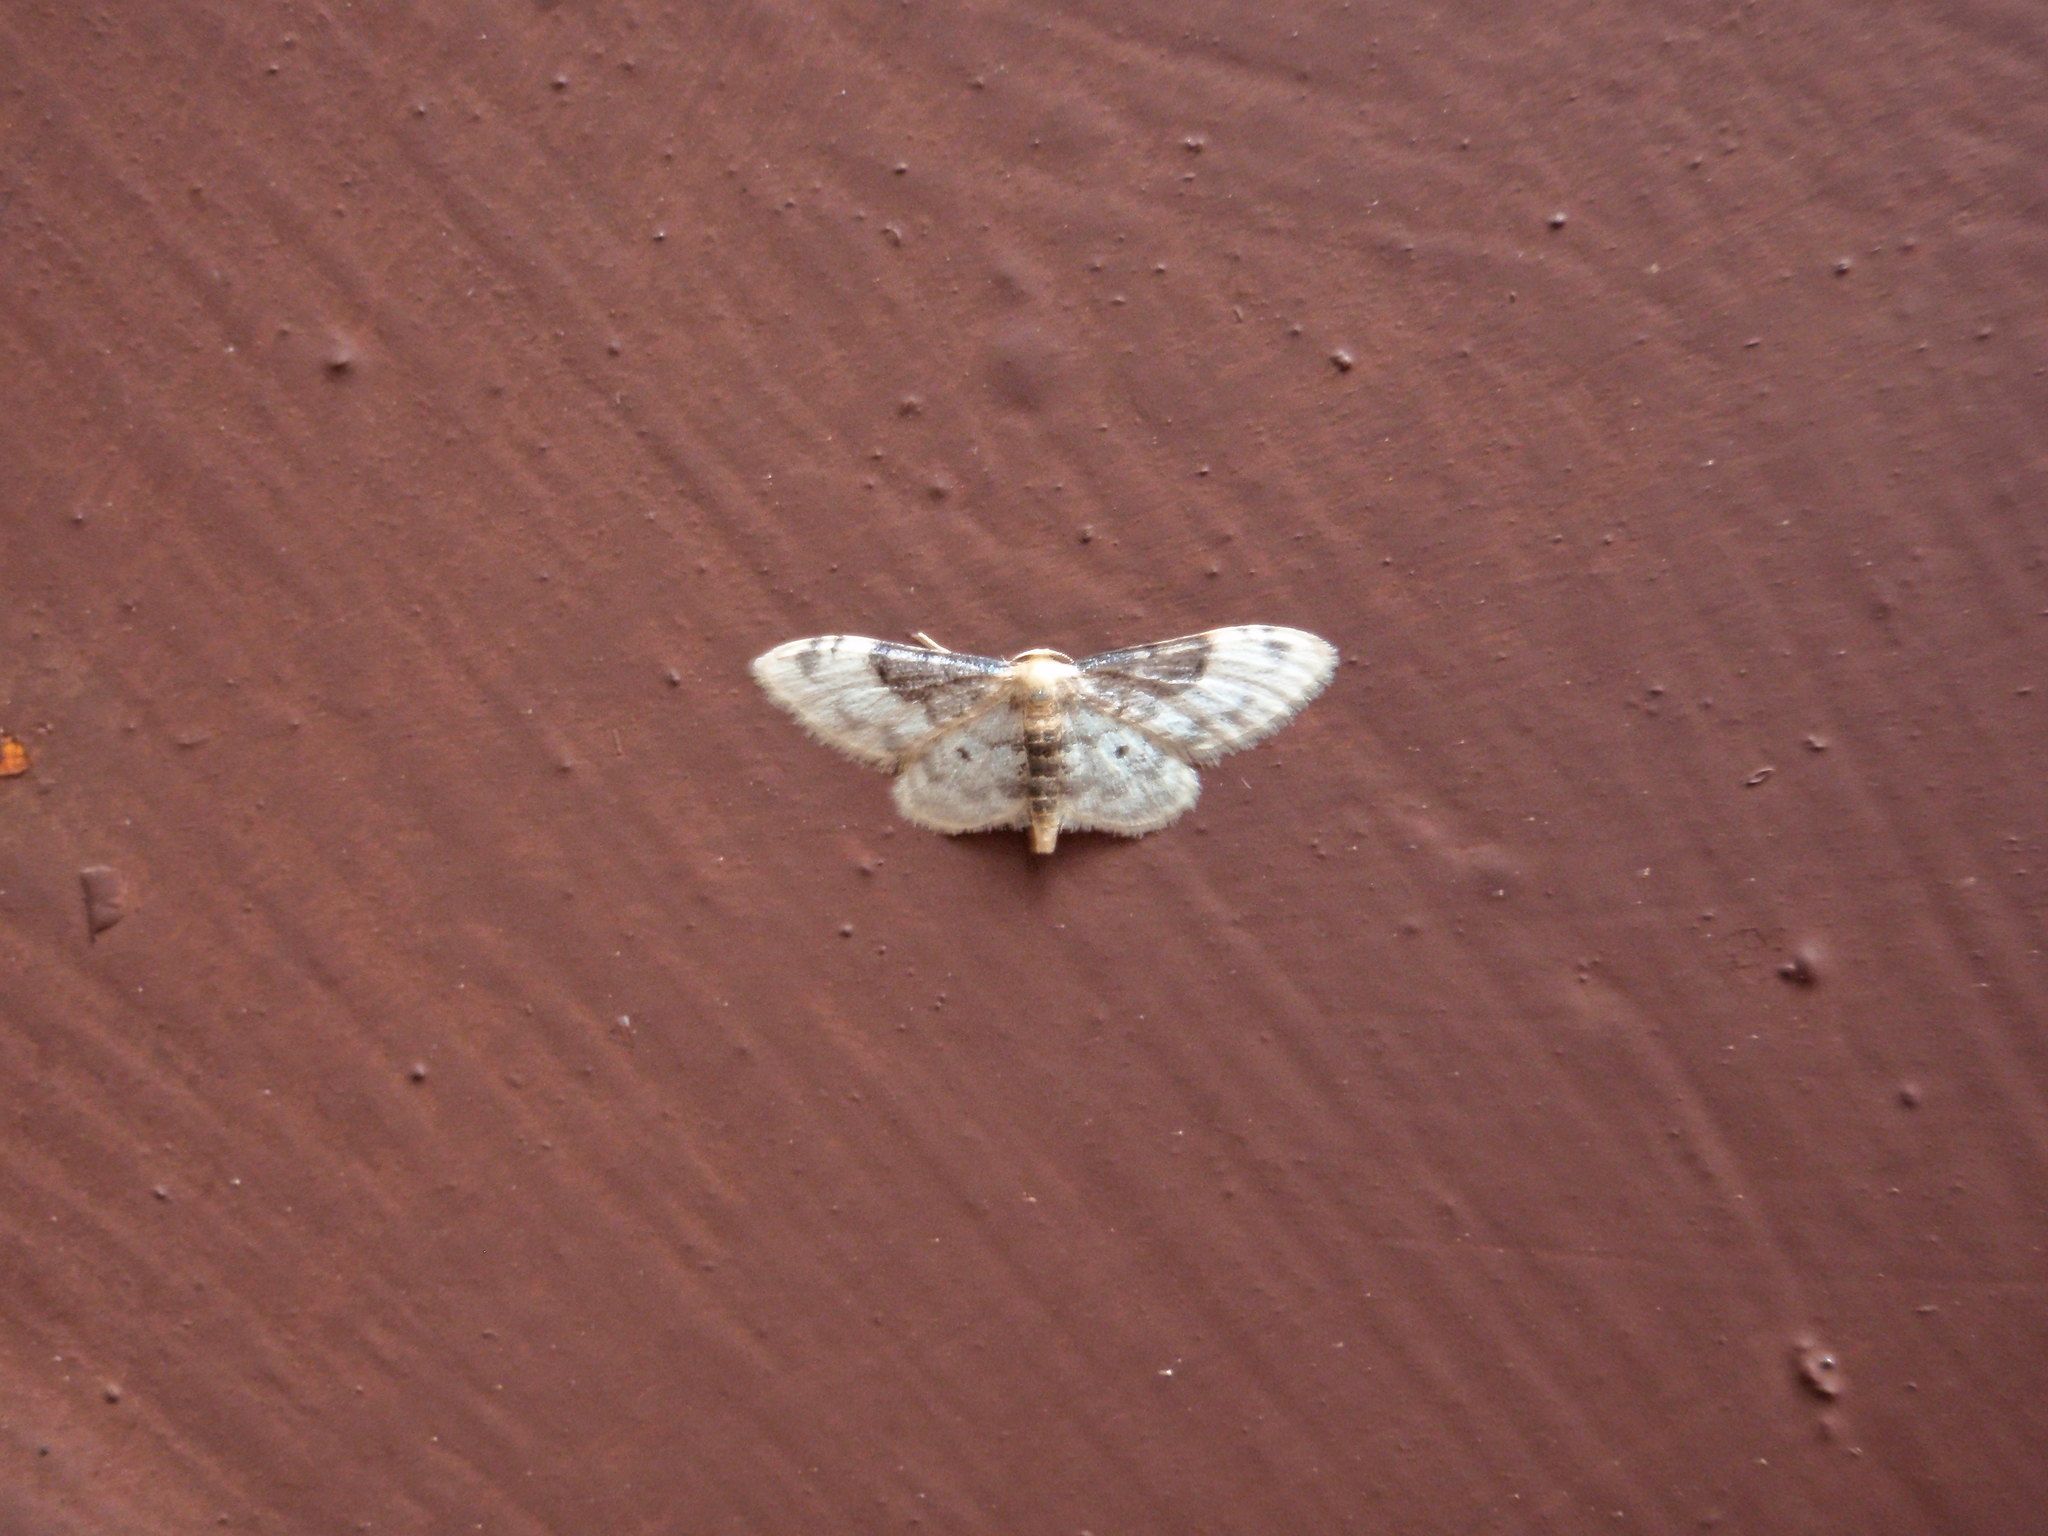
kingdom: Animalia
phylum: Arthropoda
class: Insecta
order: Lepidoptera
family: Geometridae
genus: Idaea
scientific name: Idaea filicata
